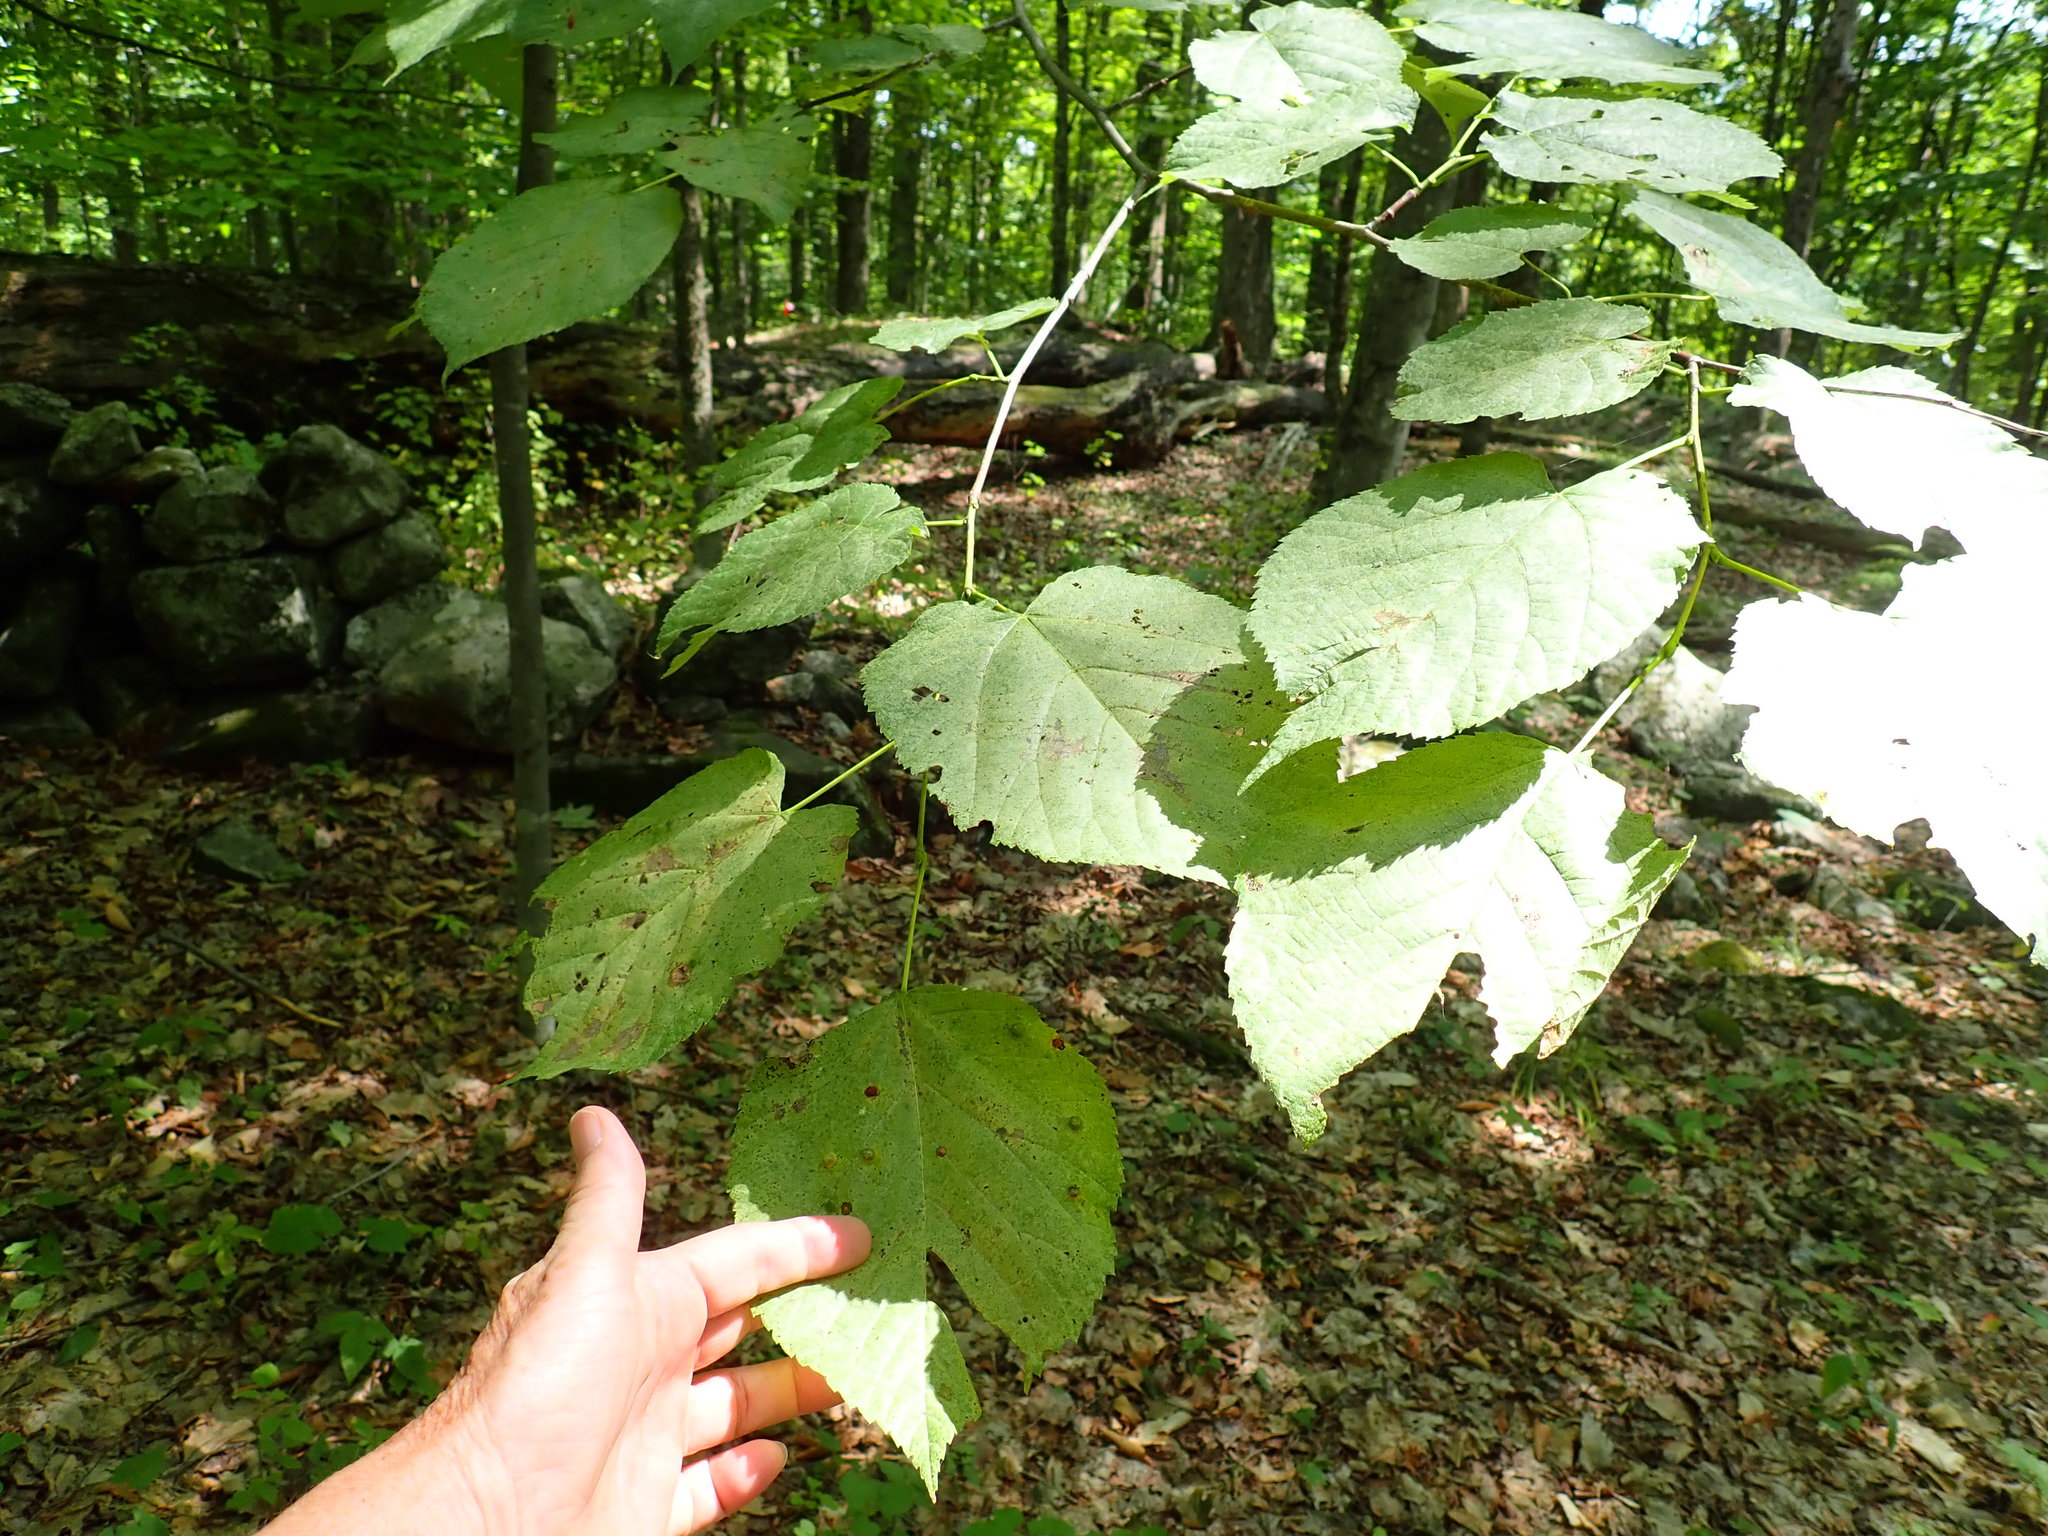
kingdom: Plantae
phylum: Tracheophyta
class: Magnoliopsida
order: Malvales
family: Malvaceae
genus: Tilia
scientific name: Tilia americana
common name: Basswood
